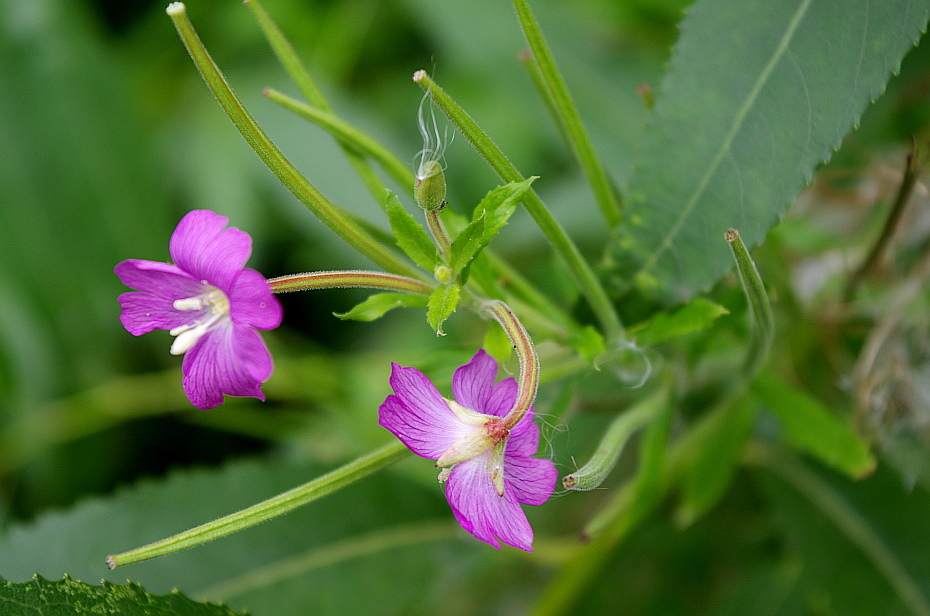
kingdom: Plantae
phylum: Tracheophyta
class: Magnoliopsida
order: Myrtales
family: Onagraceae
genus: Epilobium
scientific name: Epilobium hirsutum
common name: Great willowherb
